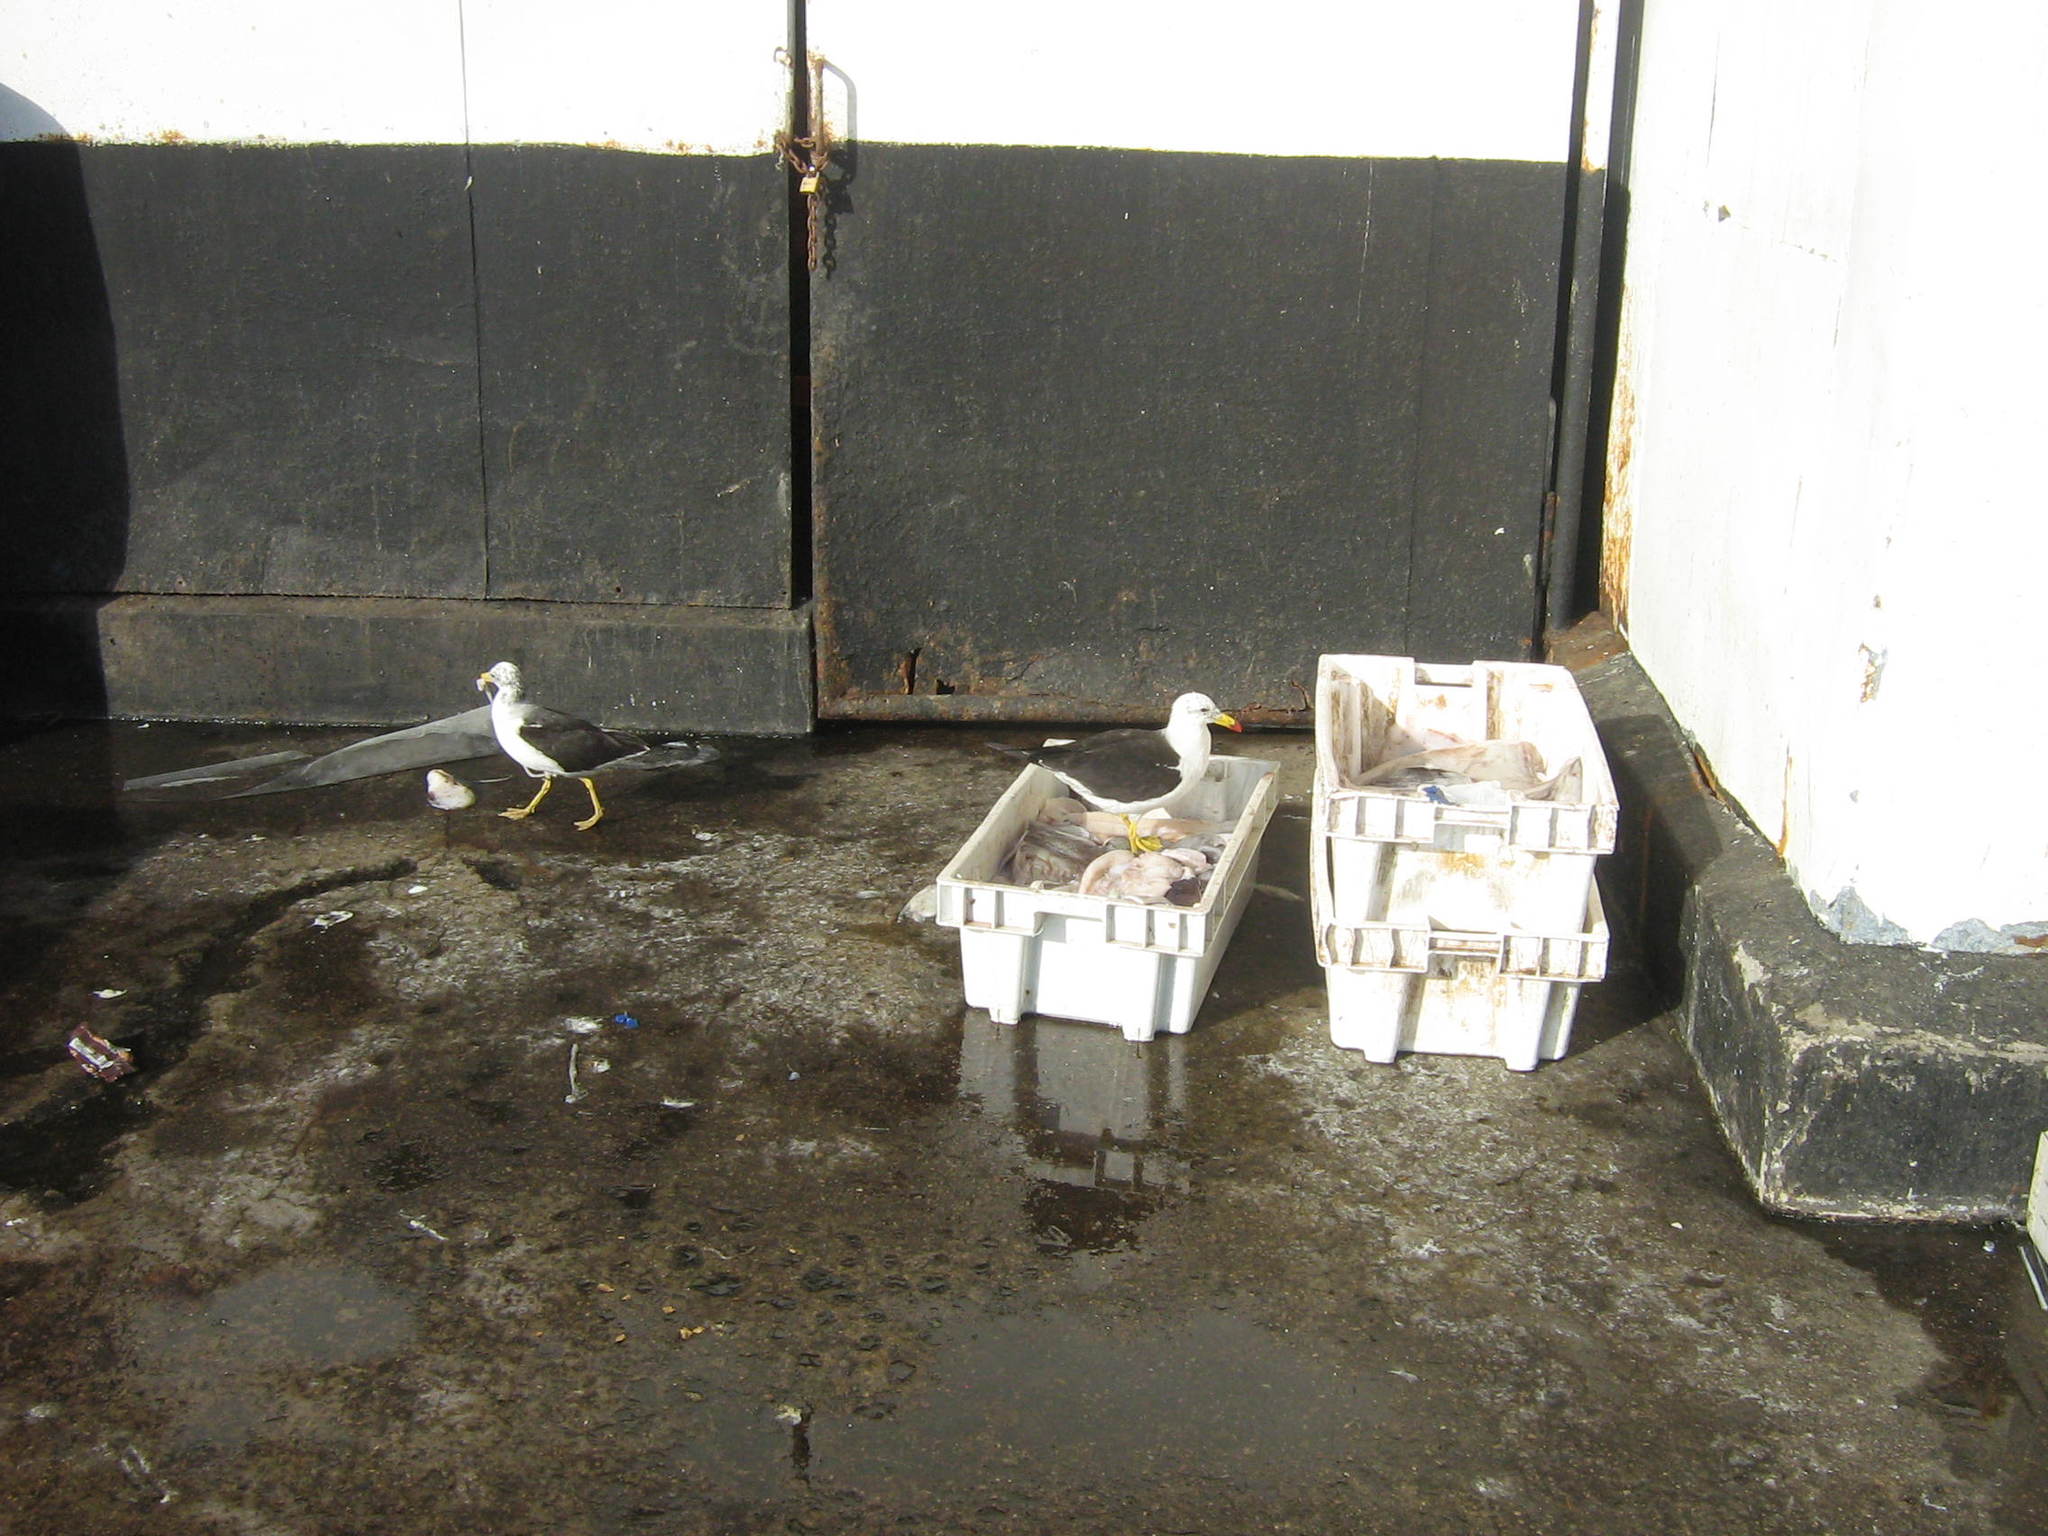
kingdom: Animalia
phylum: Chordata
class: Aves
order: Charadriiformes
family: Laridae
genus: Larus
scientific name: Larus belcheri
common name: Belcher's gull
